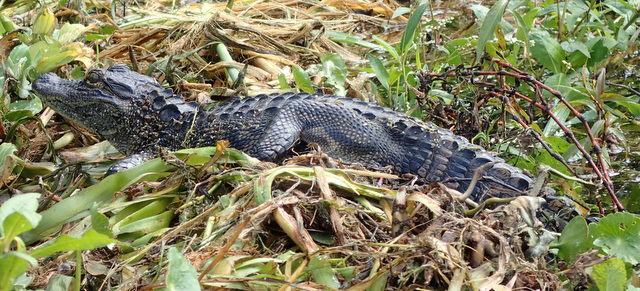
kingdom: Animalia
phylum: Chordata
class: Crocodylia
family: Alligatoridae
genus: Alligator
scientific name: Alligator mississippiensis
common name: American alligator
